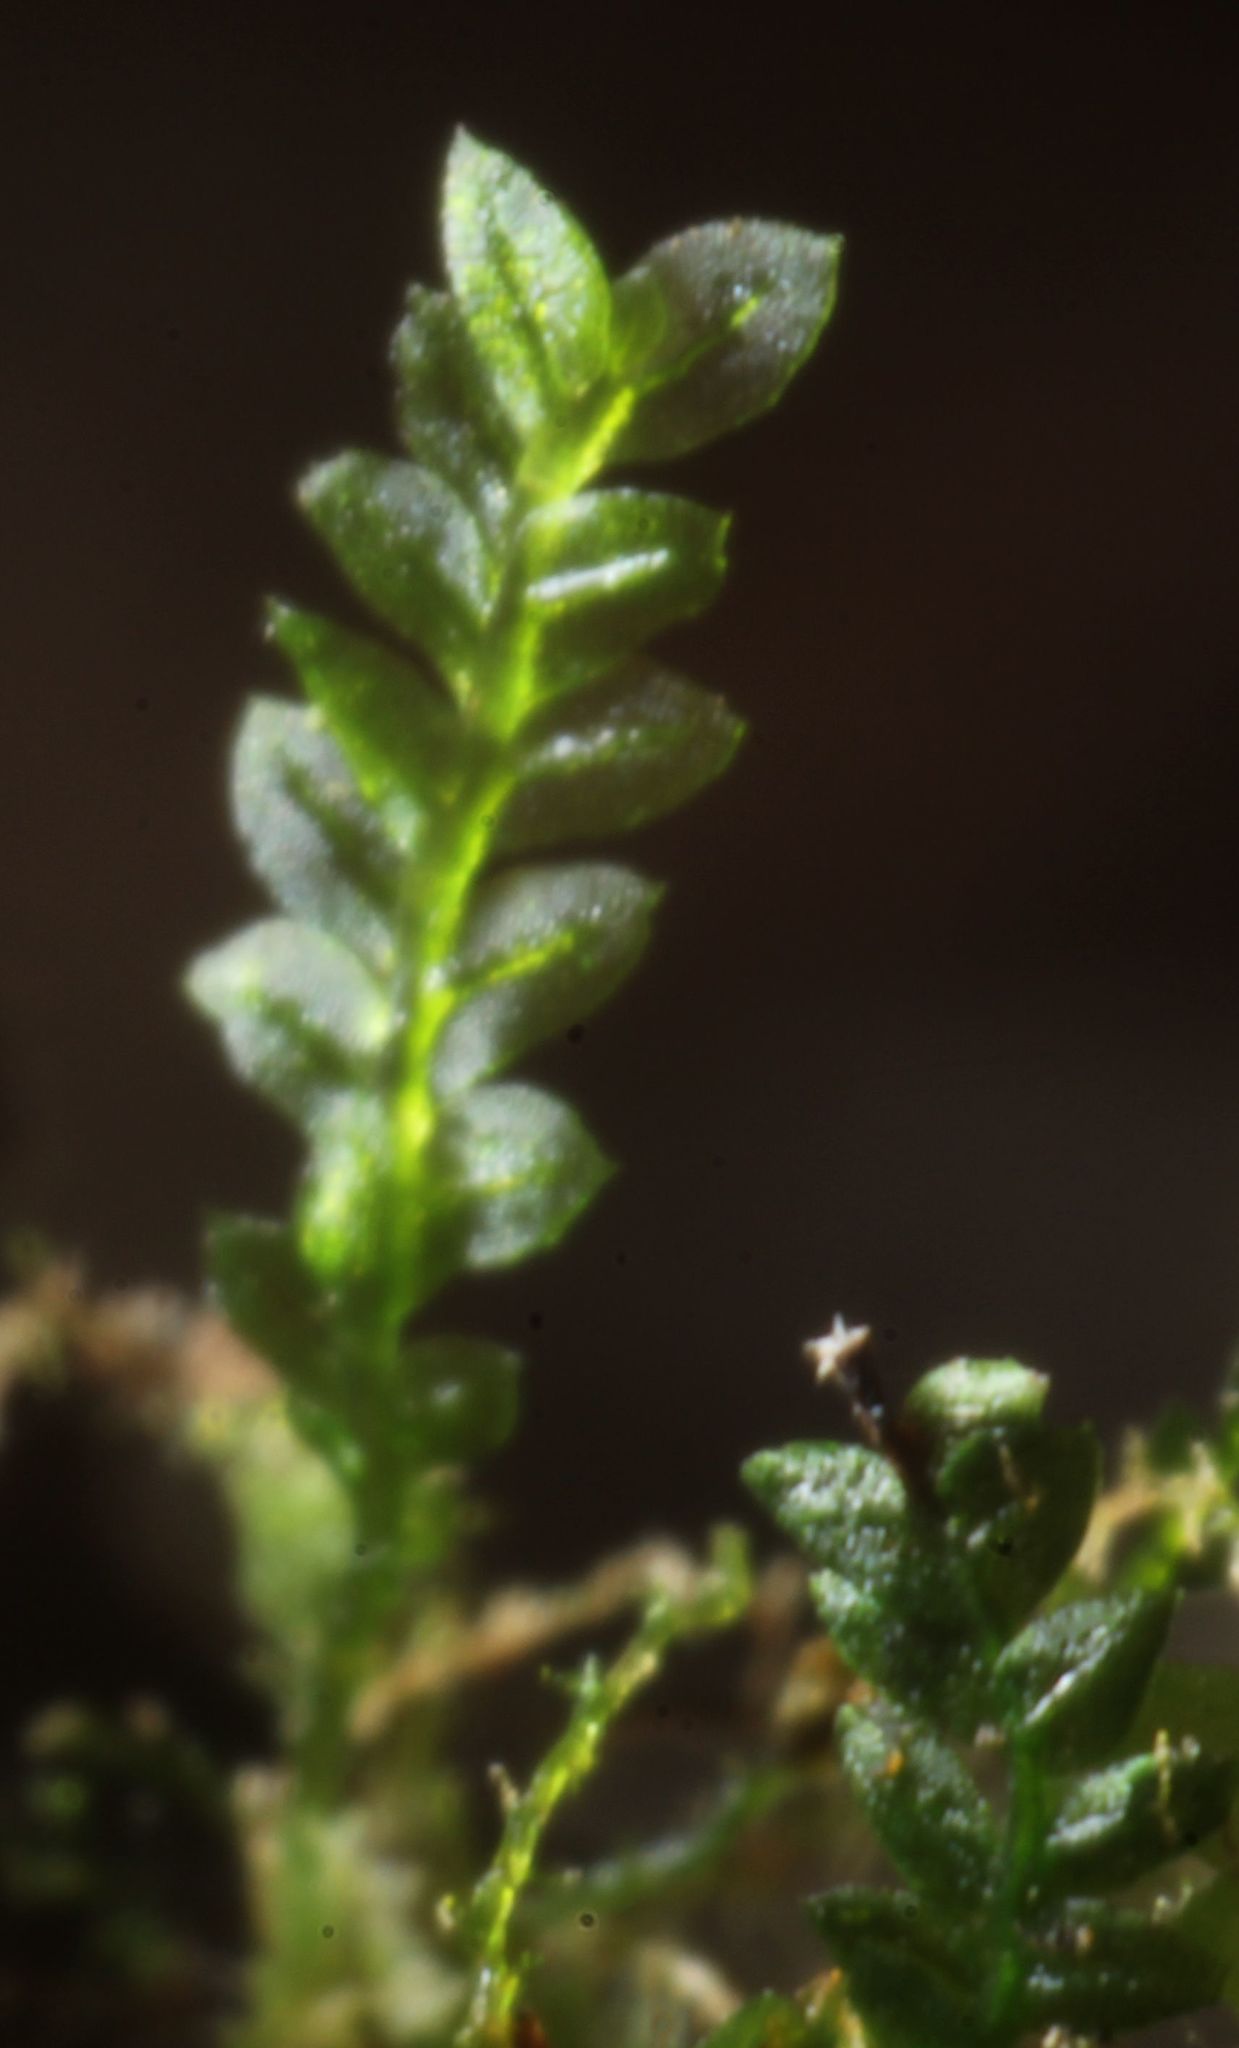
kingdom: Plantae
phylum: Bryophyta
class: Bryopsida
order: Pottiales
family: Mitteniaceae
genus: Mittenia
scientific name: Mittenia plumula
